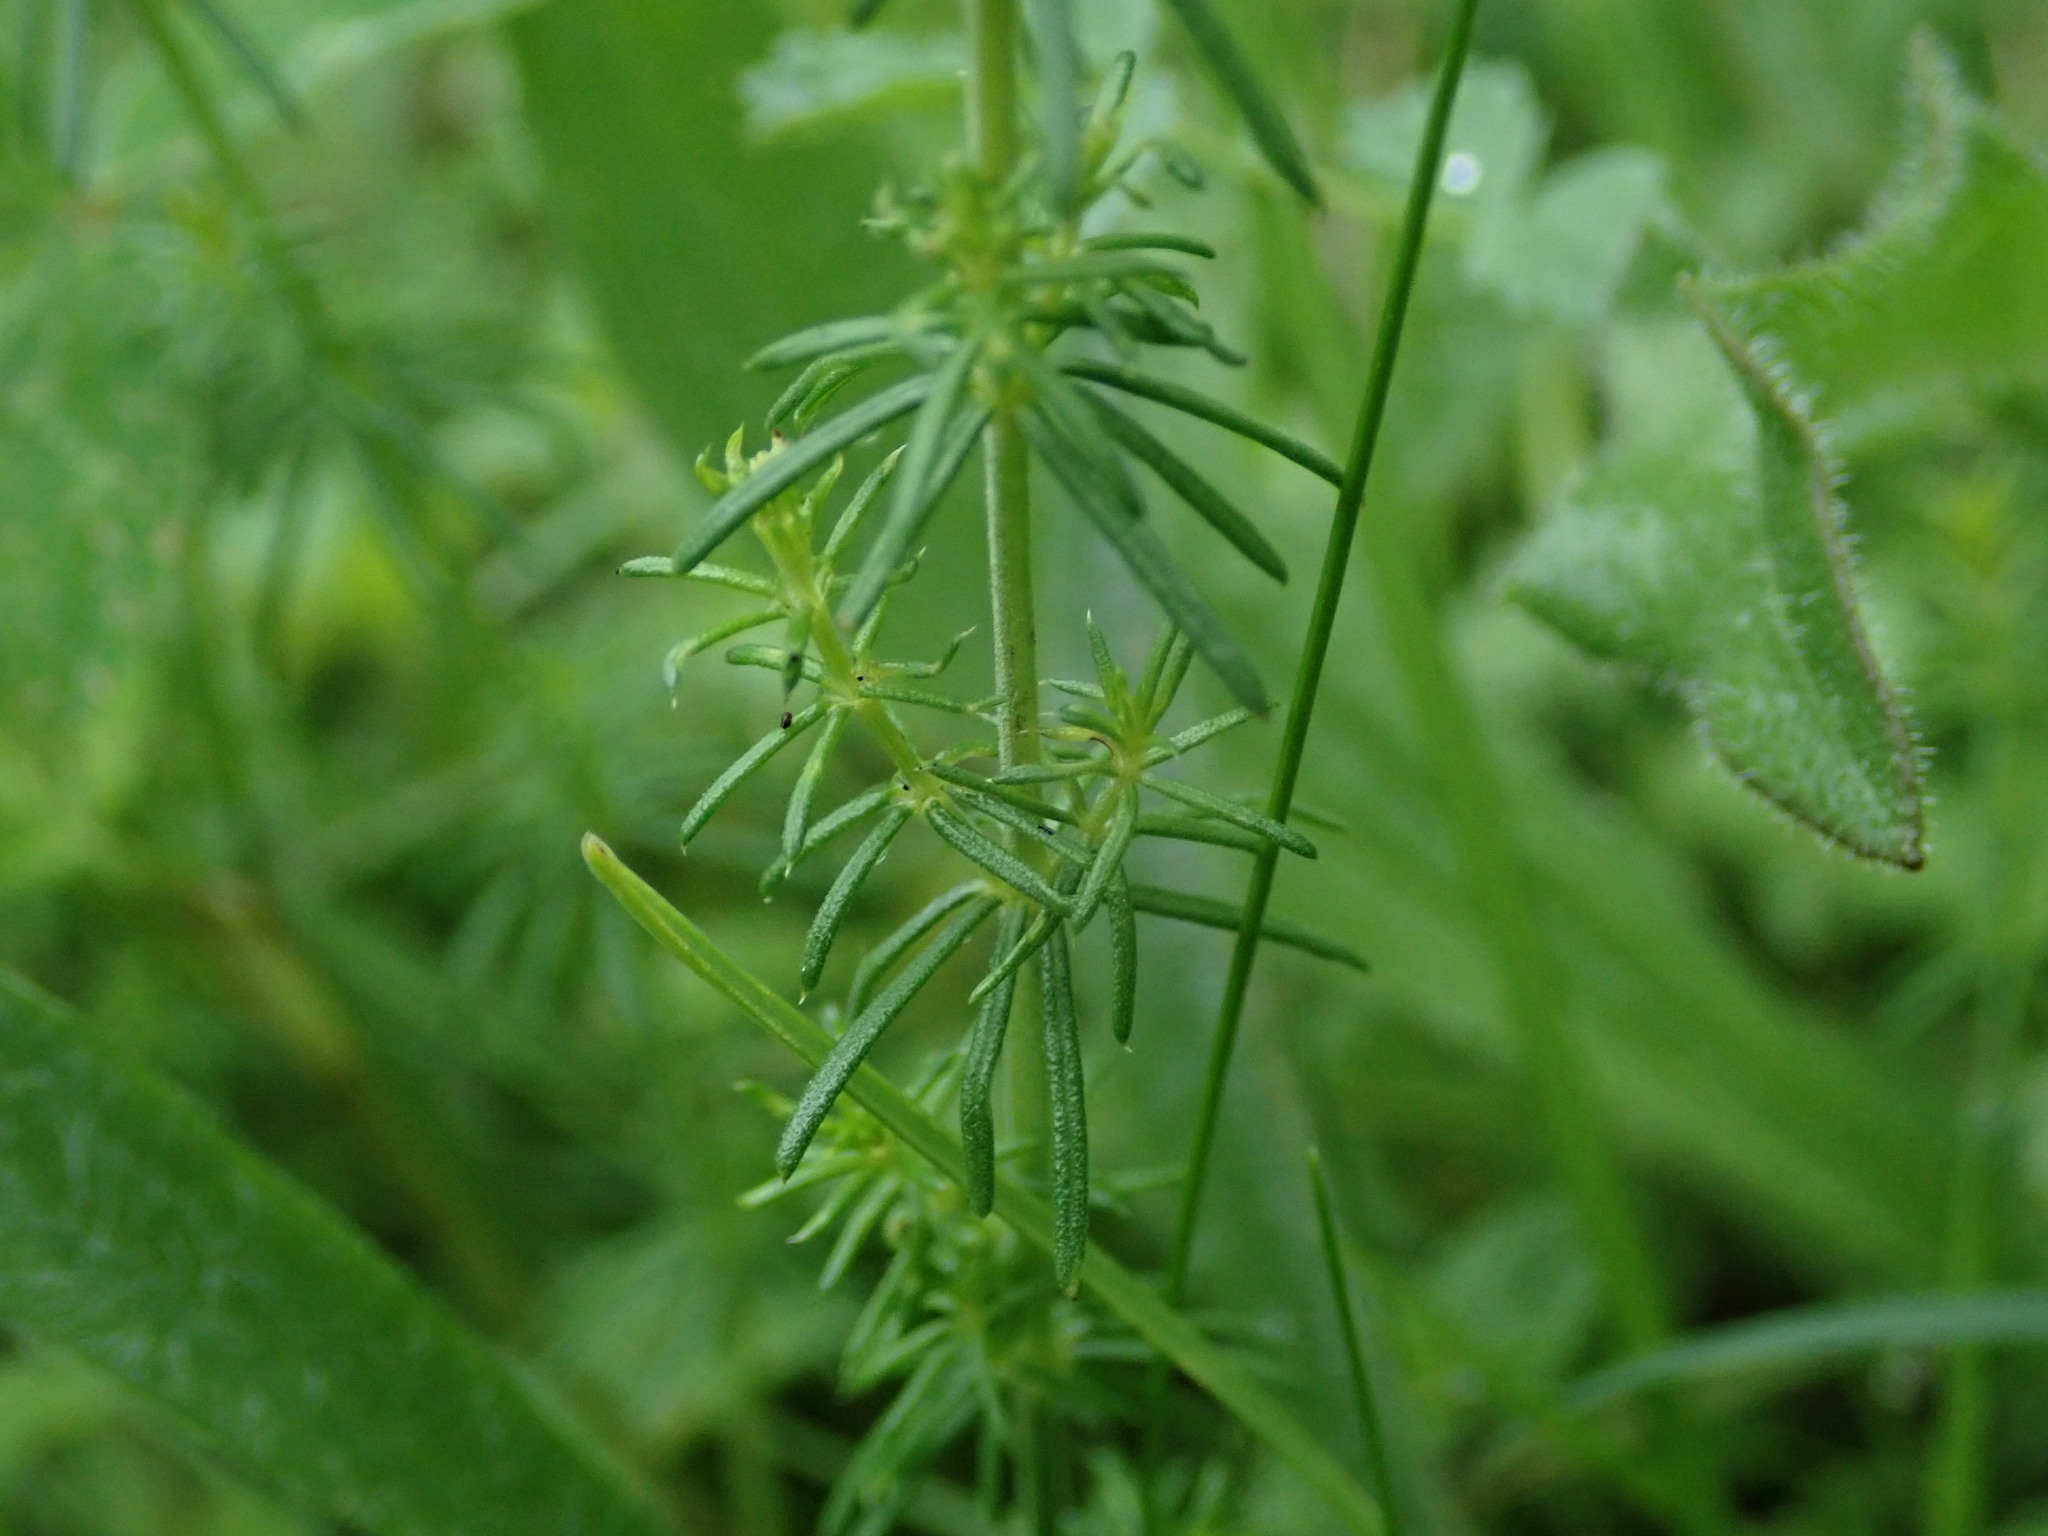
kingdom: Plantae
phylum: Tracheophyta
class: Magnoliopsida
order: Gentianales
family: Rubiaceae
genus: Galium
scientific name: Galium verum
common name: Lady's bedstraw
